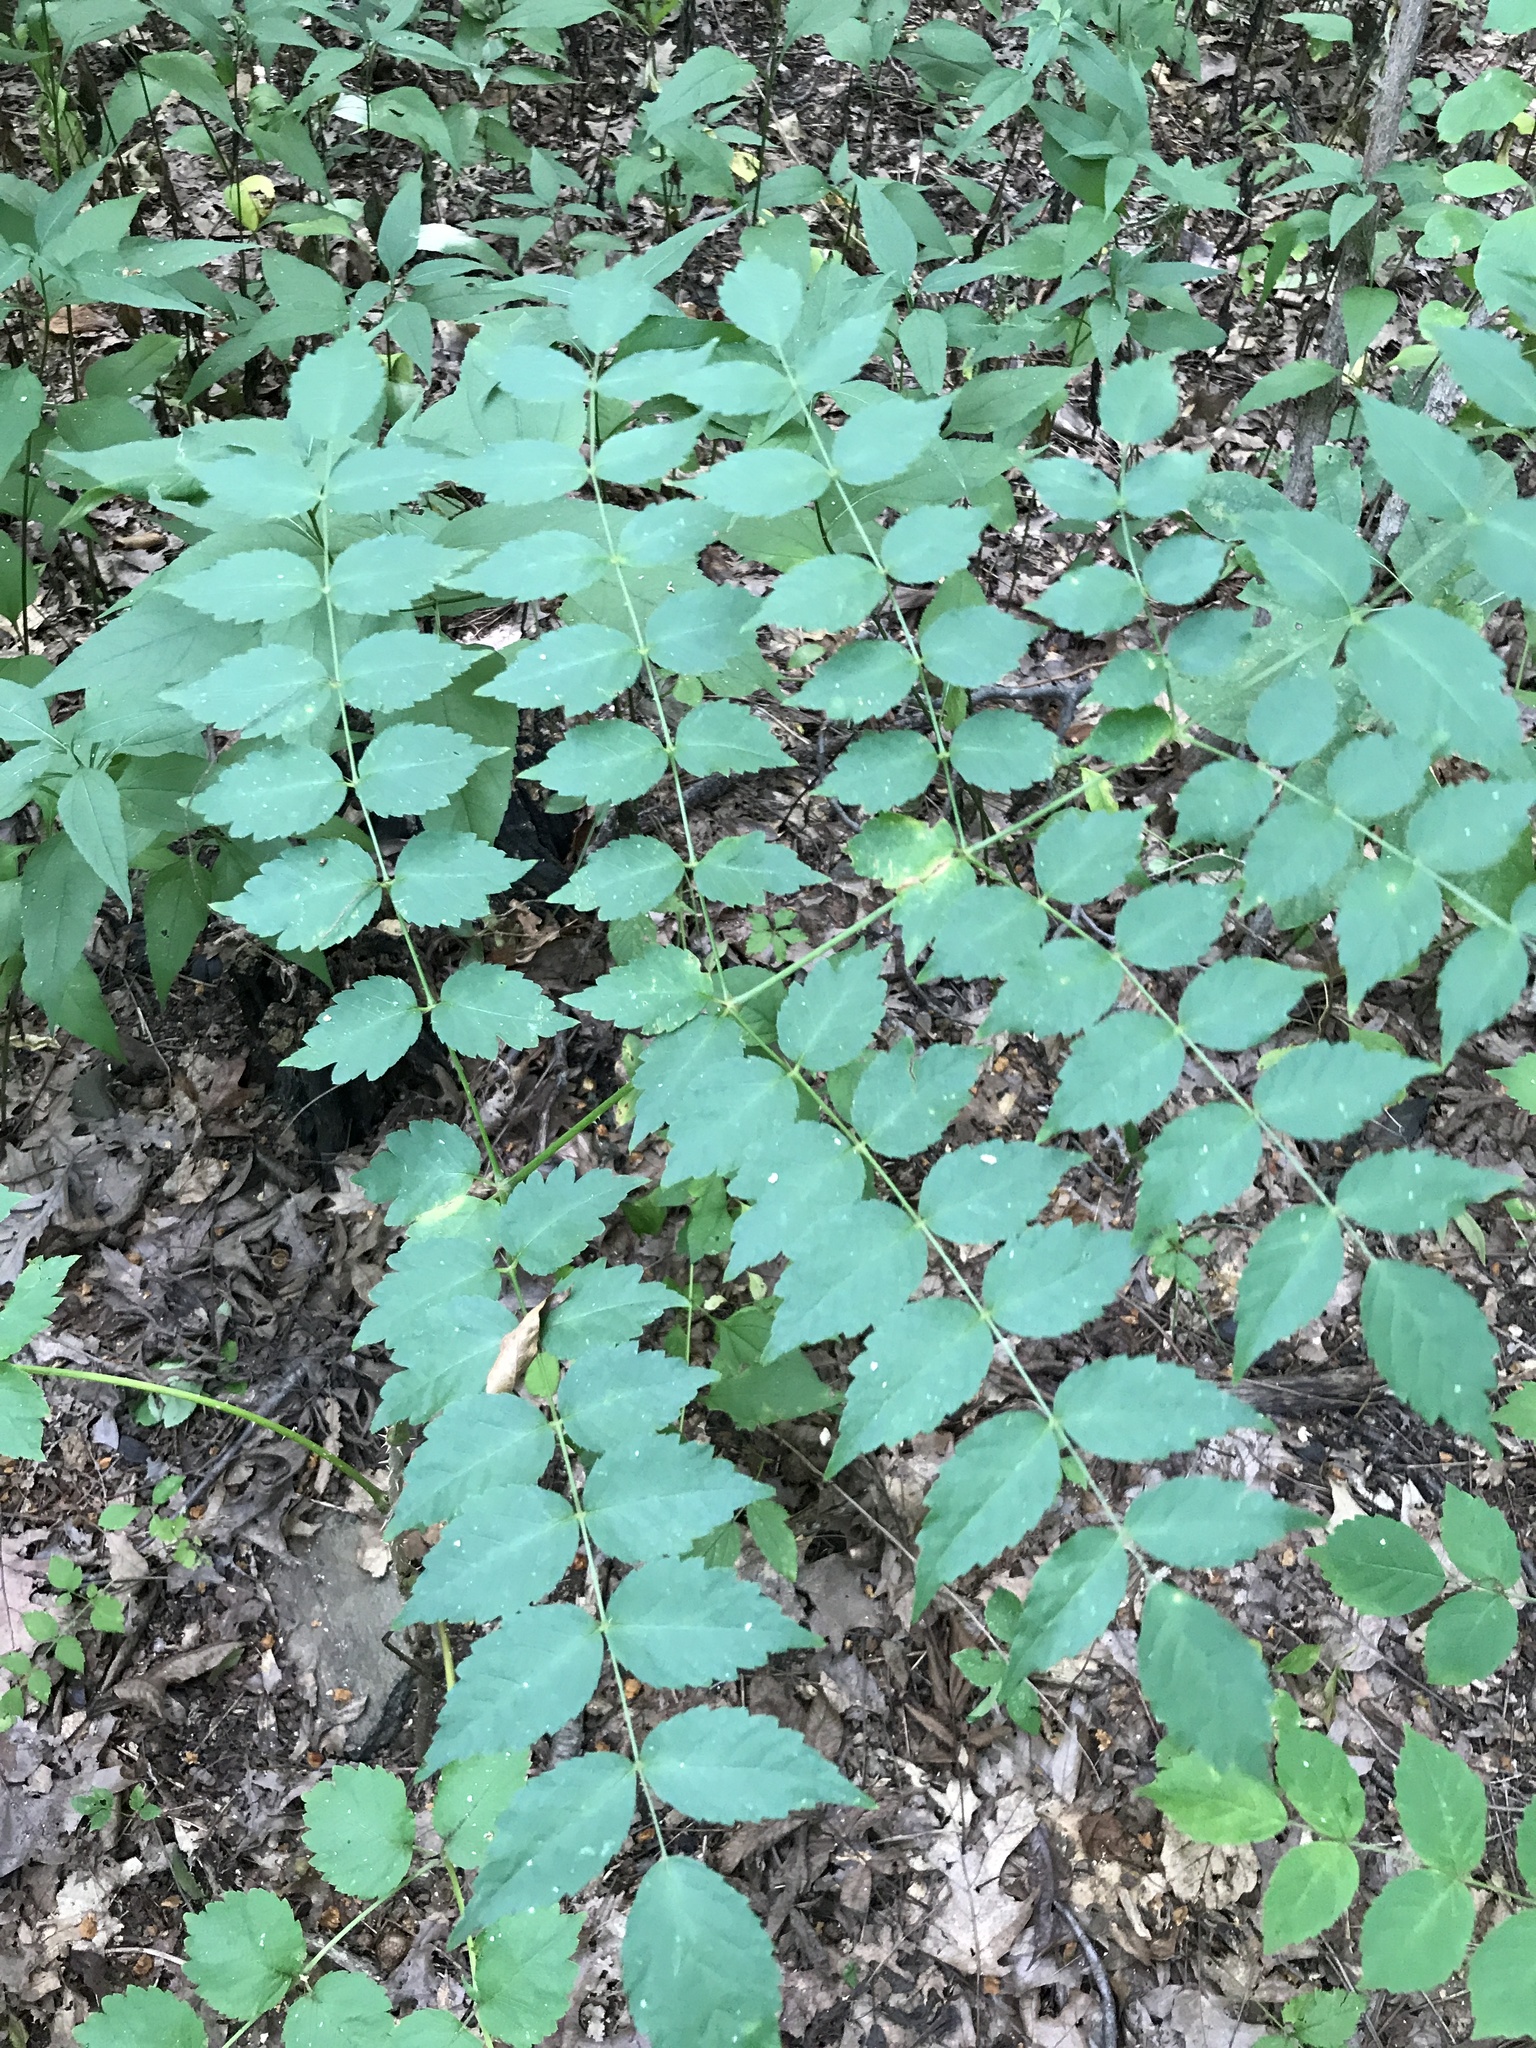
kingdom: Plantae
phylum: Tracheophyta
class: Magnoliopsida
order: Apiales
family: Araliaceae
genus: Aralia
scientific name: Aralia elata
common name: Japanese angelica-tree
